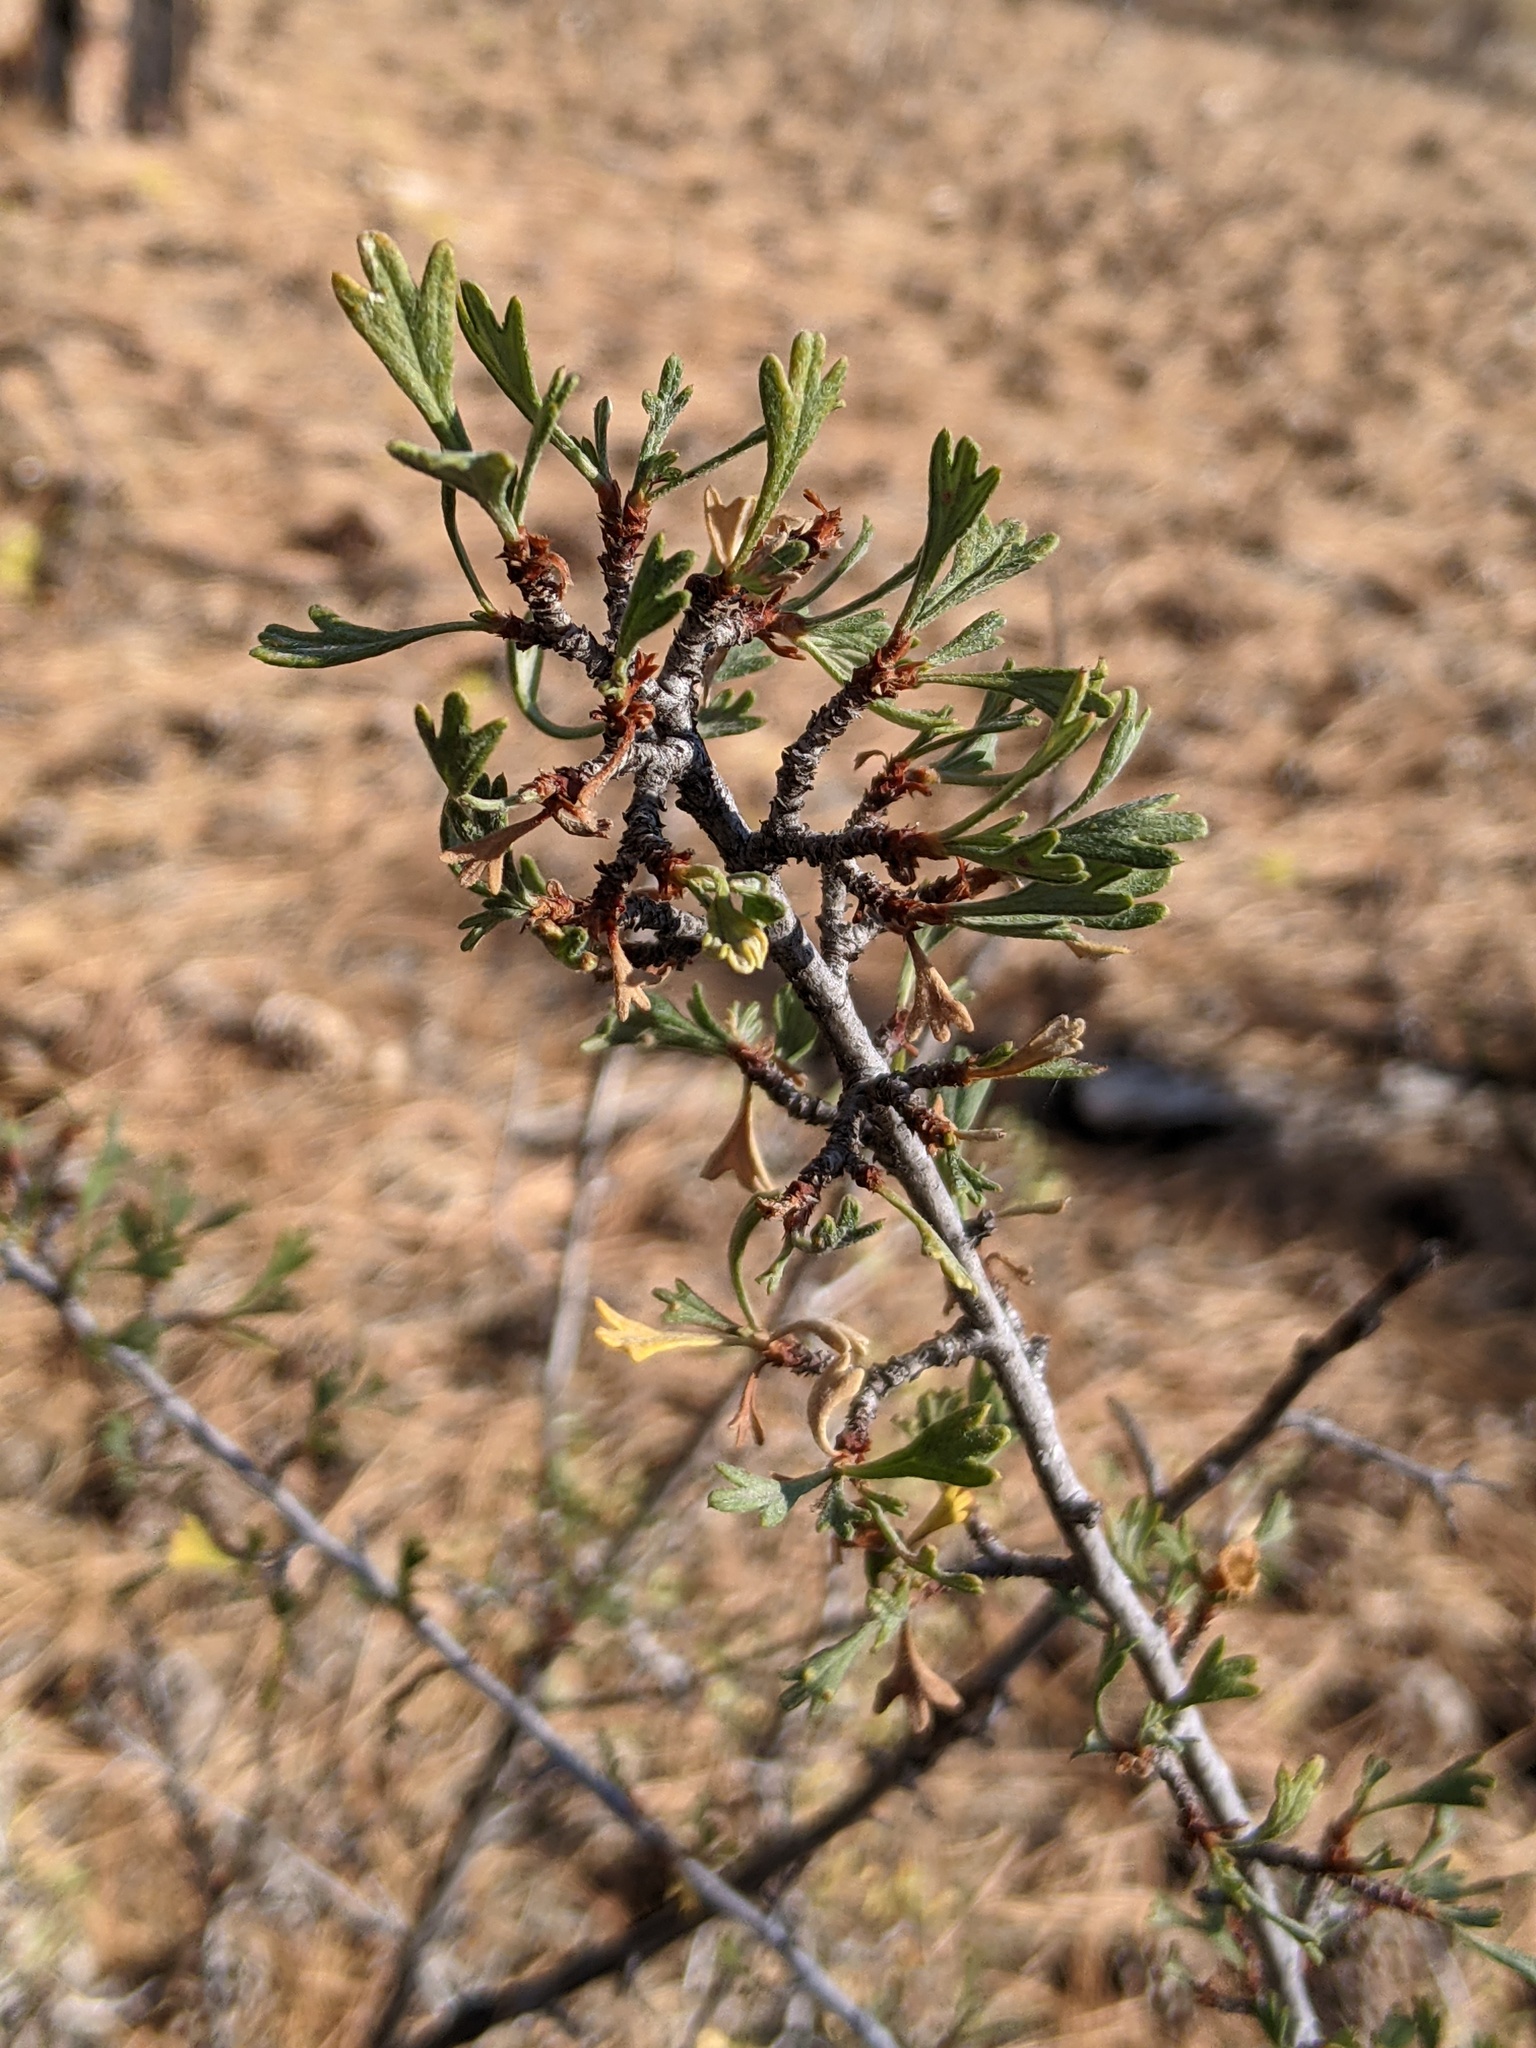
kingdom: Plantae
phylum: Tracheophyta
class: Magnoliopsida
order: Rosales
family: Rosaceae
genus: Purshia
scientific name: Purshia tridentata
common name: Antelope bitterbrush
